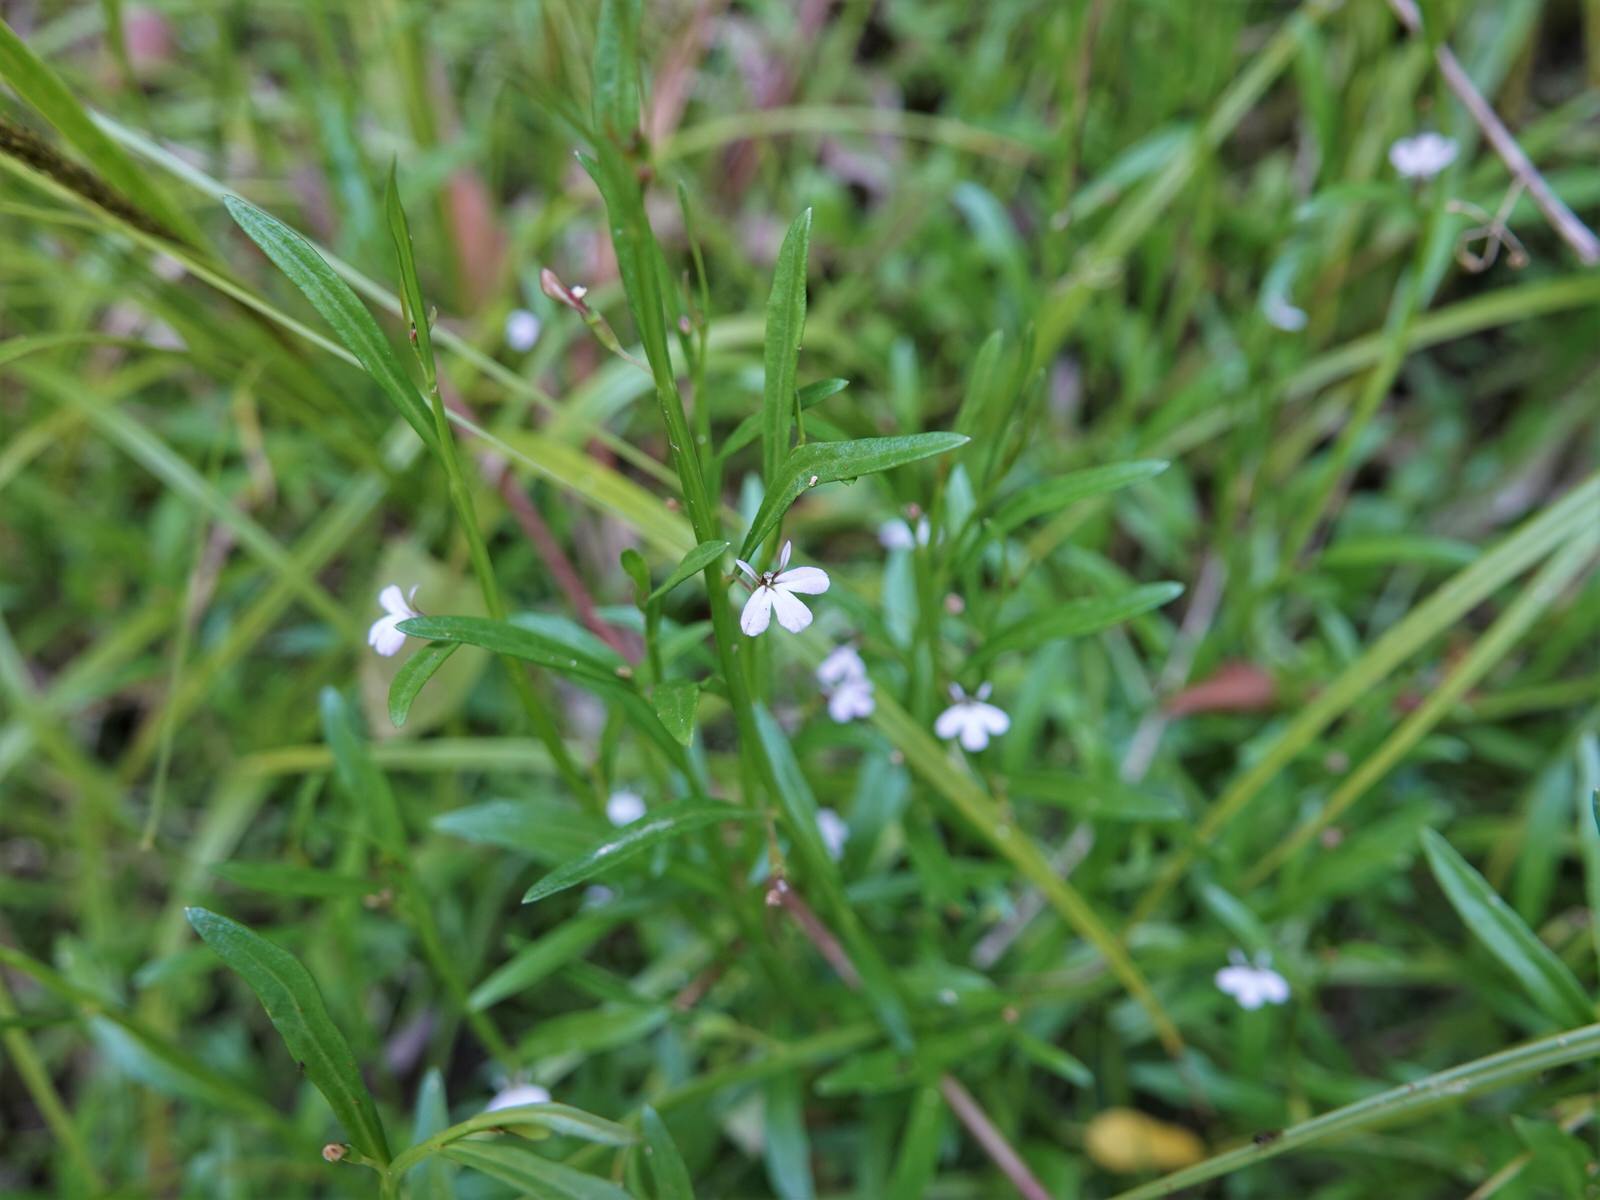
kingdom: Plantae
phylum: Tracheophyta
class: Magnoliopsida
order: Asterales
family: Campanulaceae
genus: Lobelia
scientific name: Lobelia anceps
